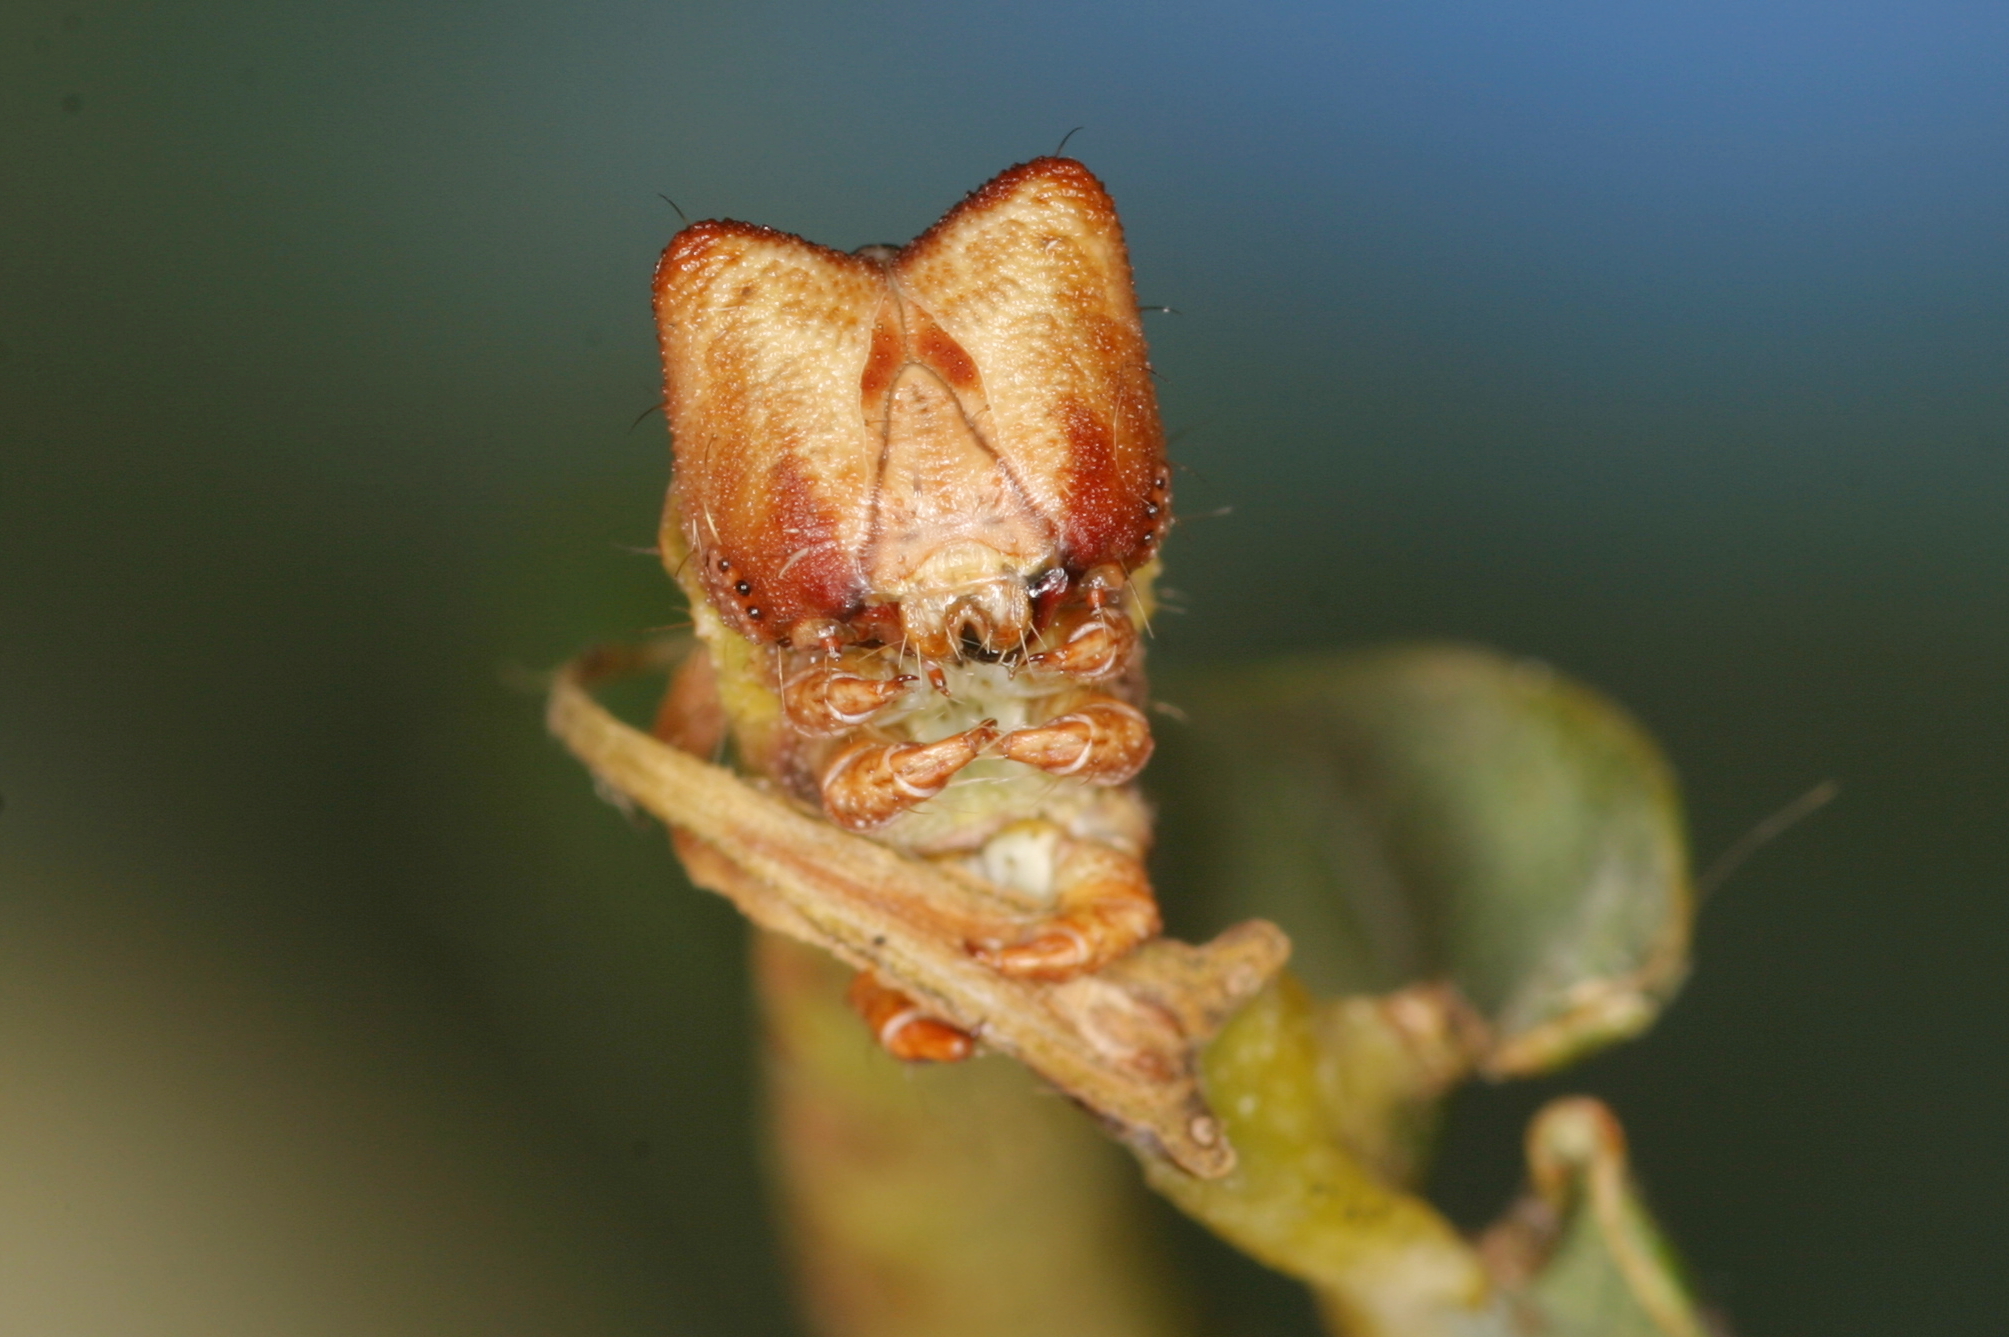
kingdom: Animalia
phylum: Arthropoda
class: Insecta
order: Lepidoptera
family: Geometridae
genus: Biston
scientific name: Biston betularia
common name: Peppered moth
